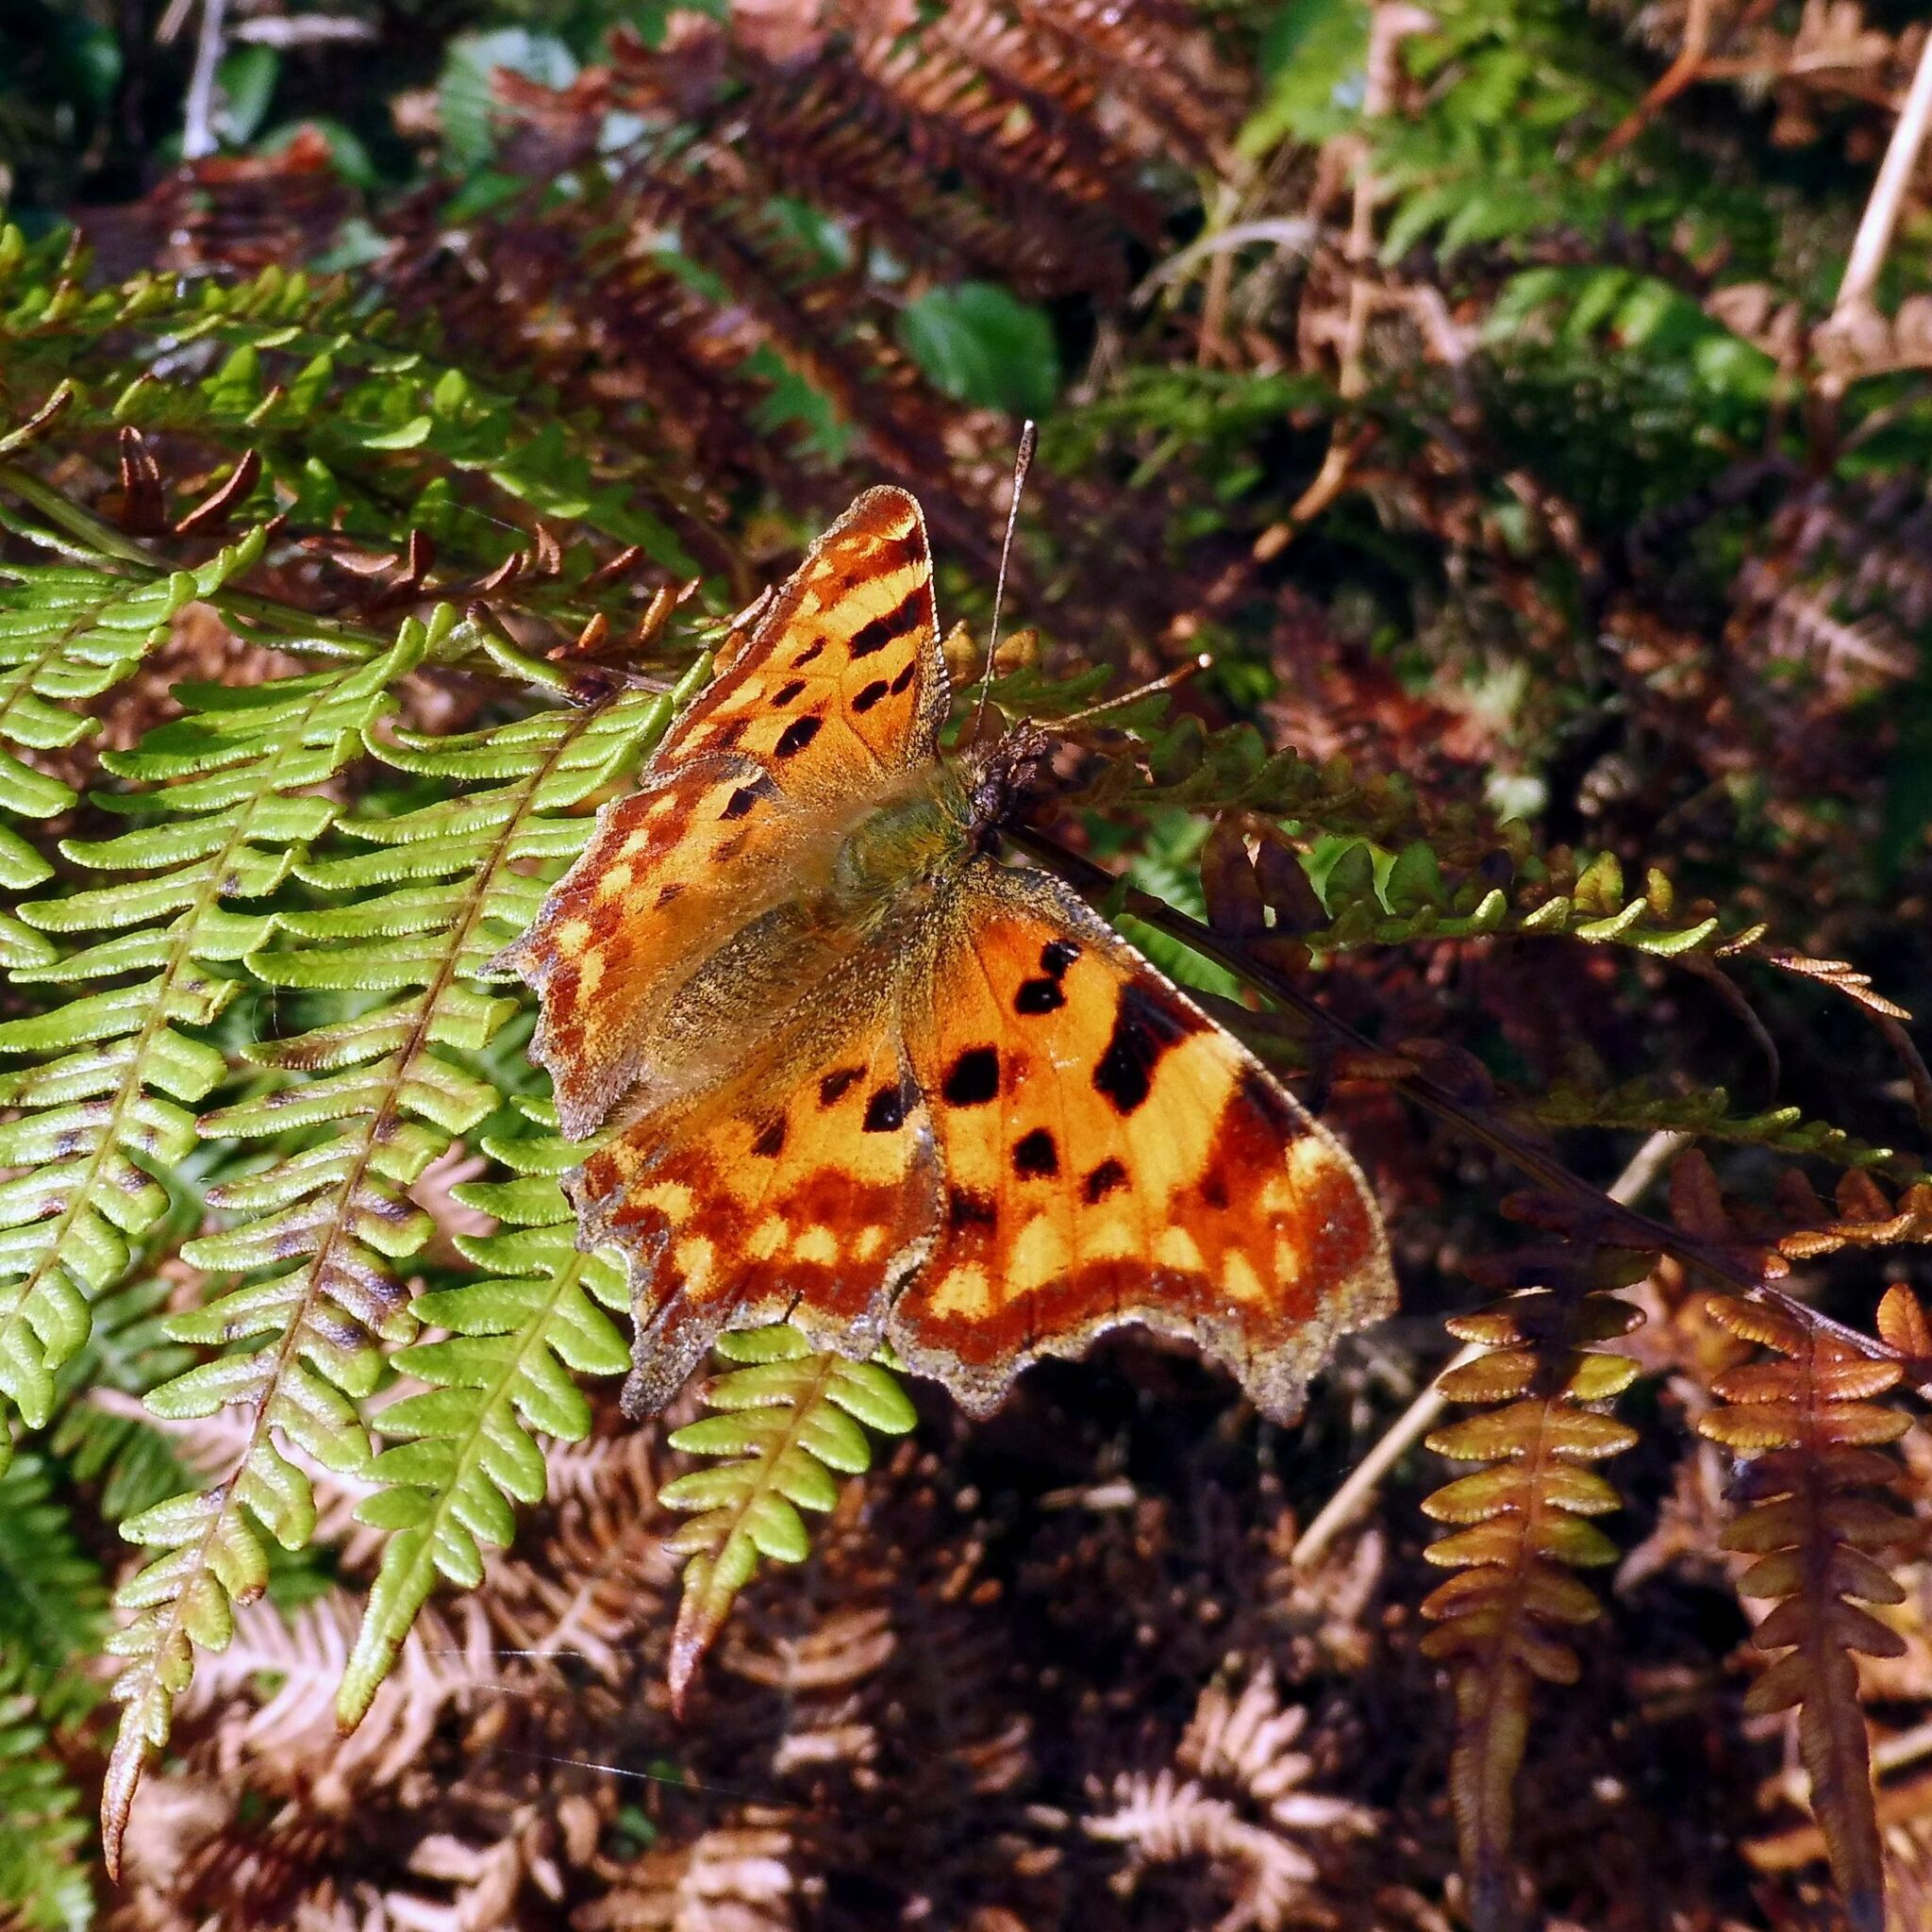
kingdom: Animalia
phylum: Arthropoda
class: Insecta
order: Lepidoptera
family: Nymphalidae
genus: Polygonia
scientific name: Polygonia c-album
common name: Comma
